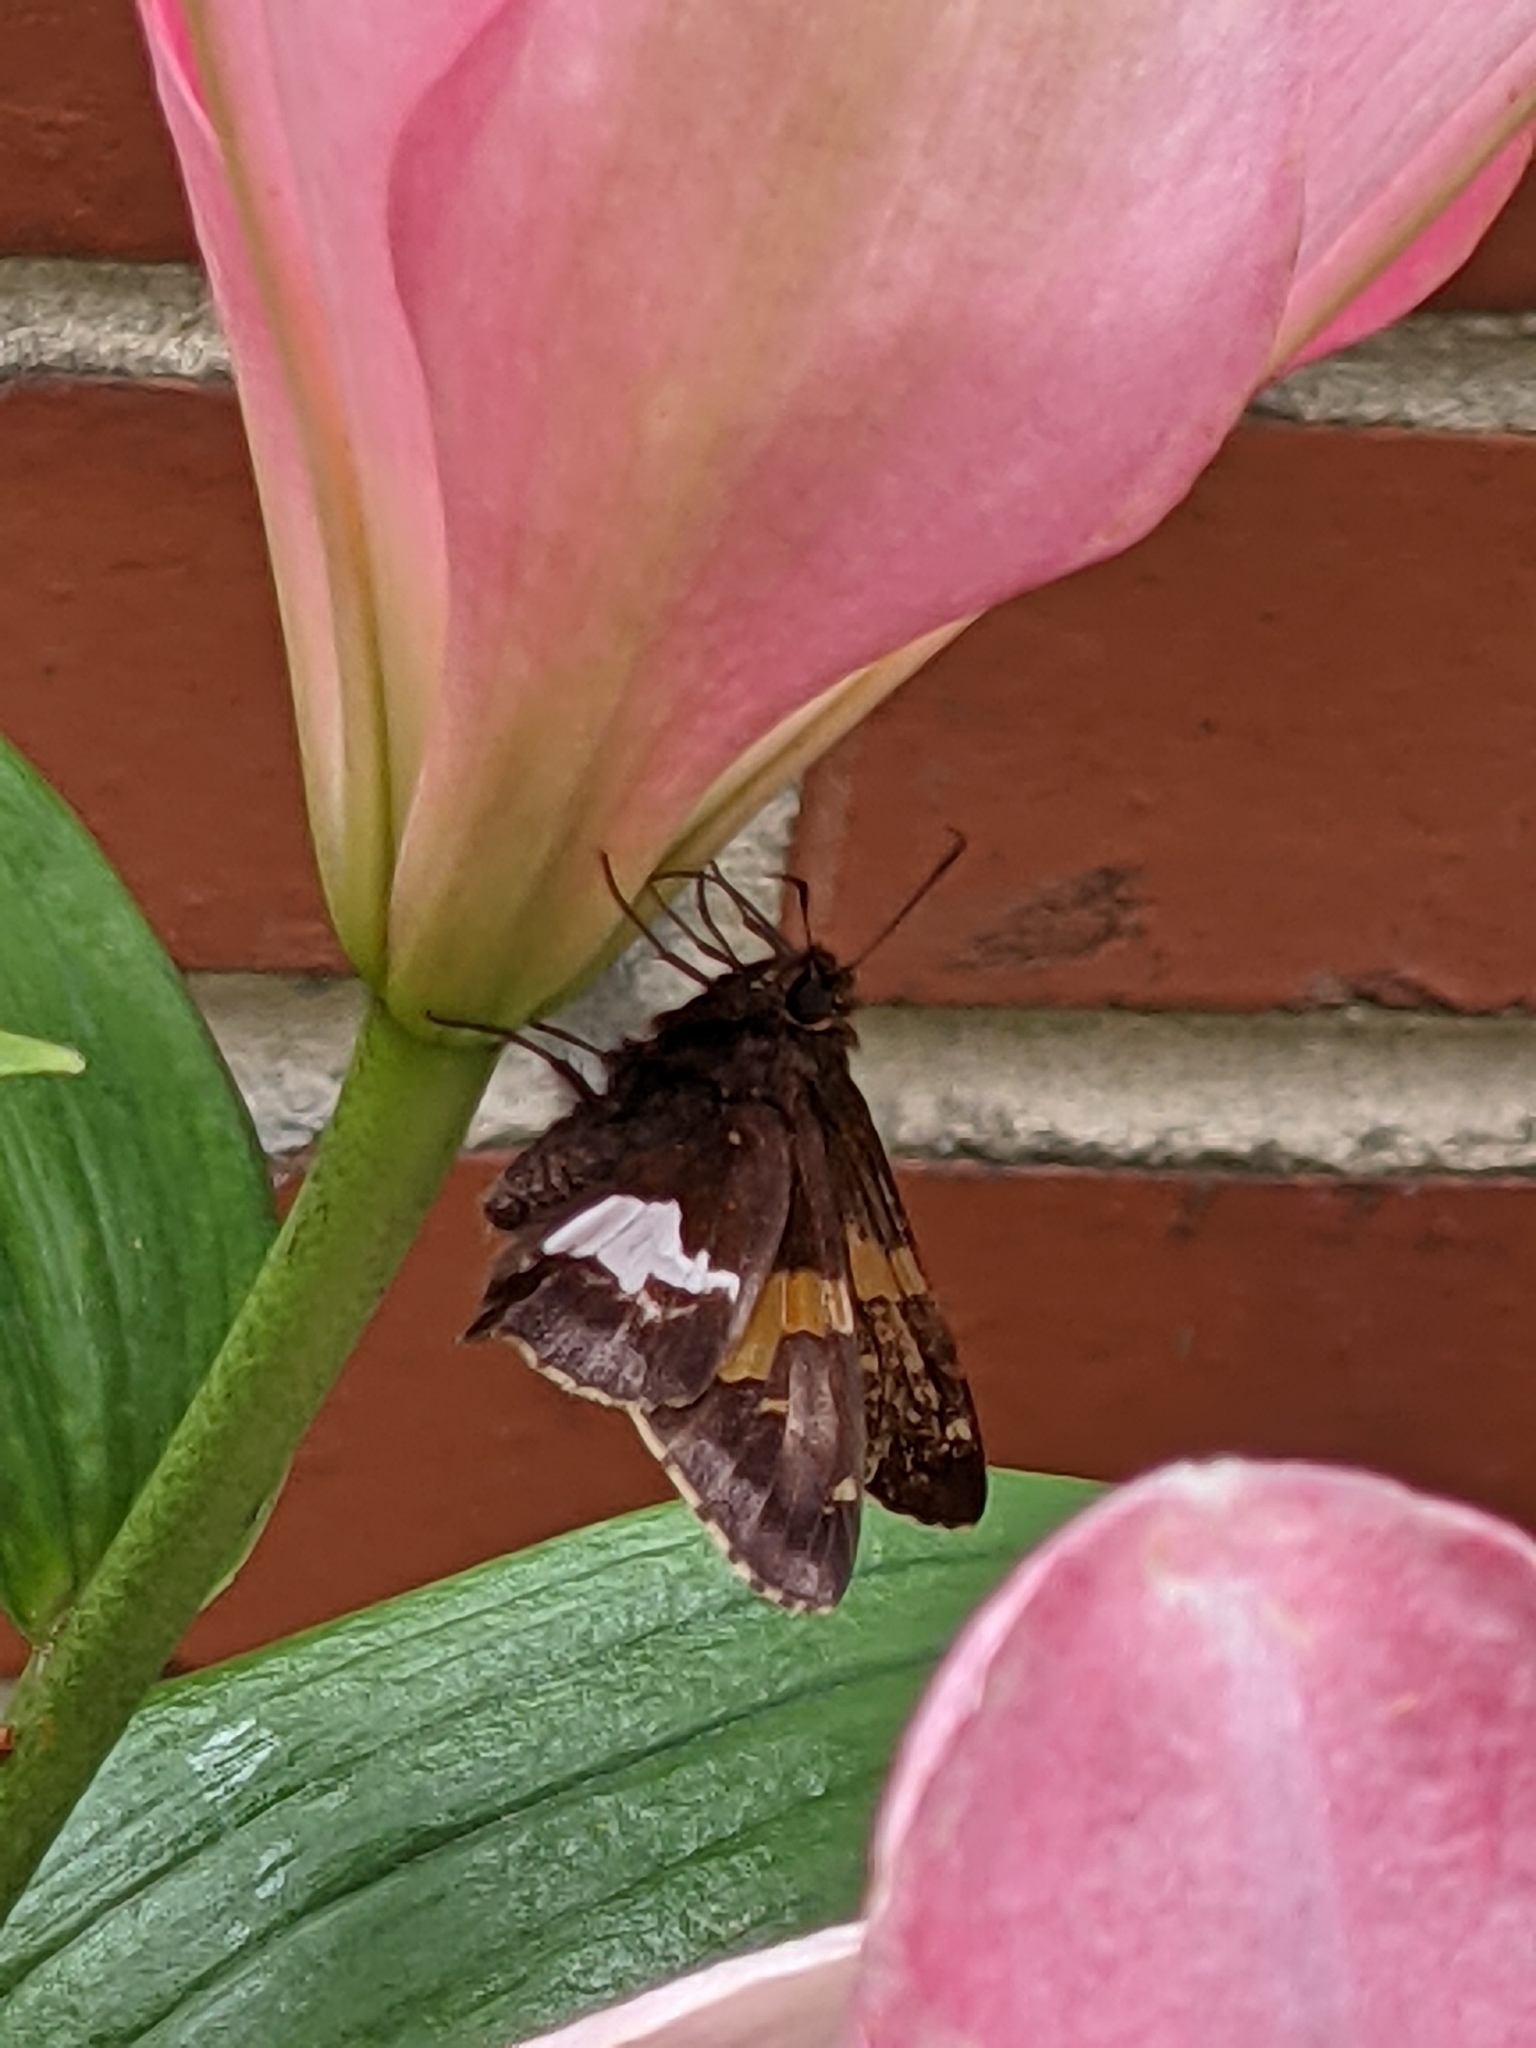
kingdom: Animalia
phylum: Arthropoda
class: Insecta
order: Lepidoptera
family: Hesperiidae
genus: Epargyreus
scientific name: Epargyreus clarus
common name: Silver-spotted skipper
